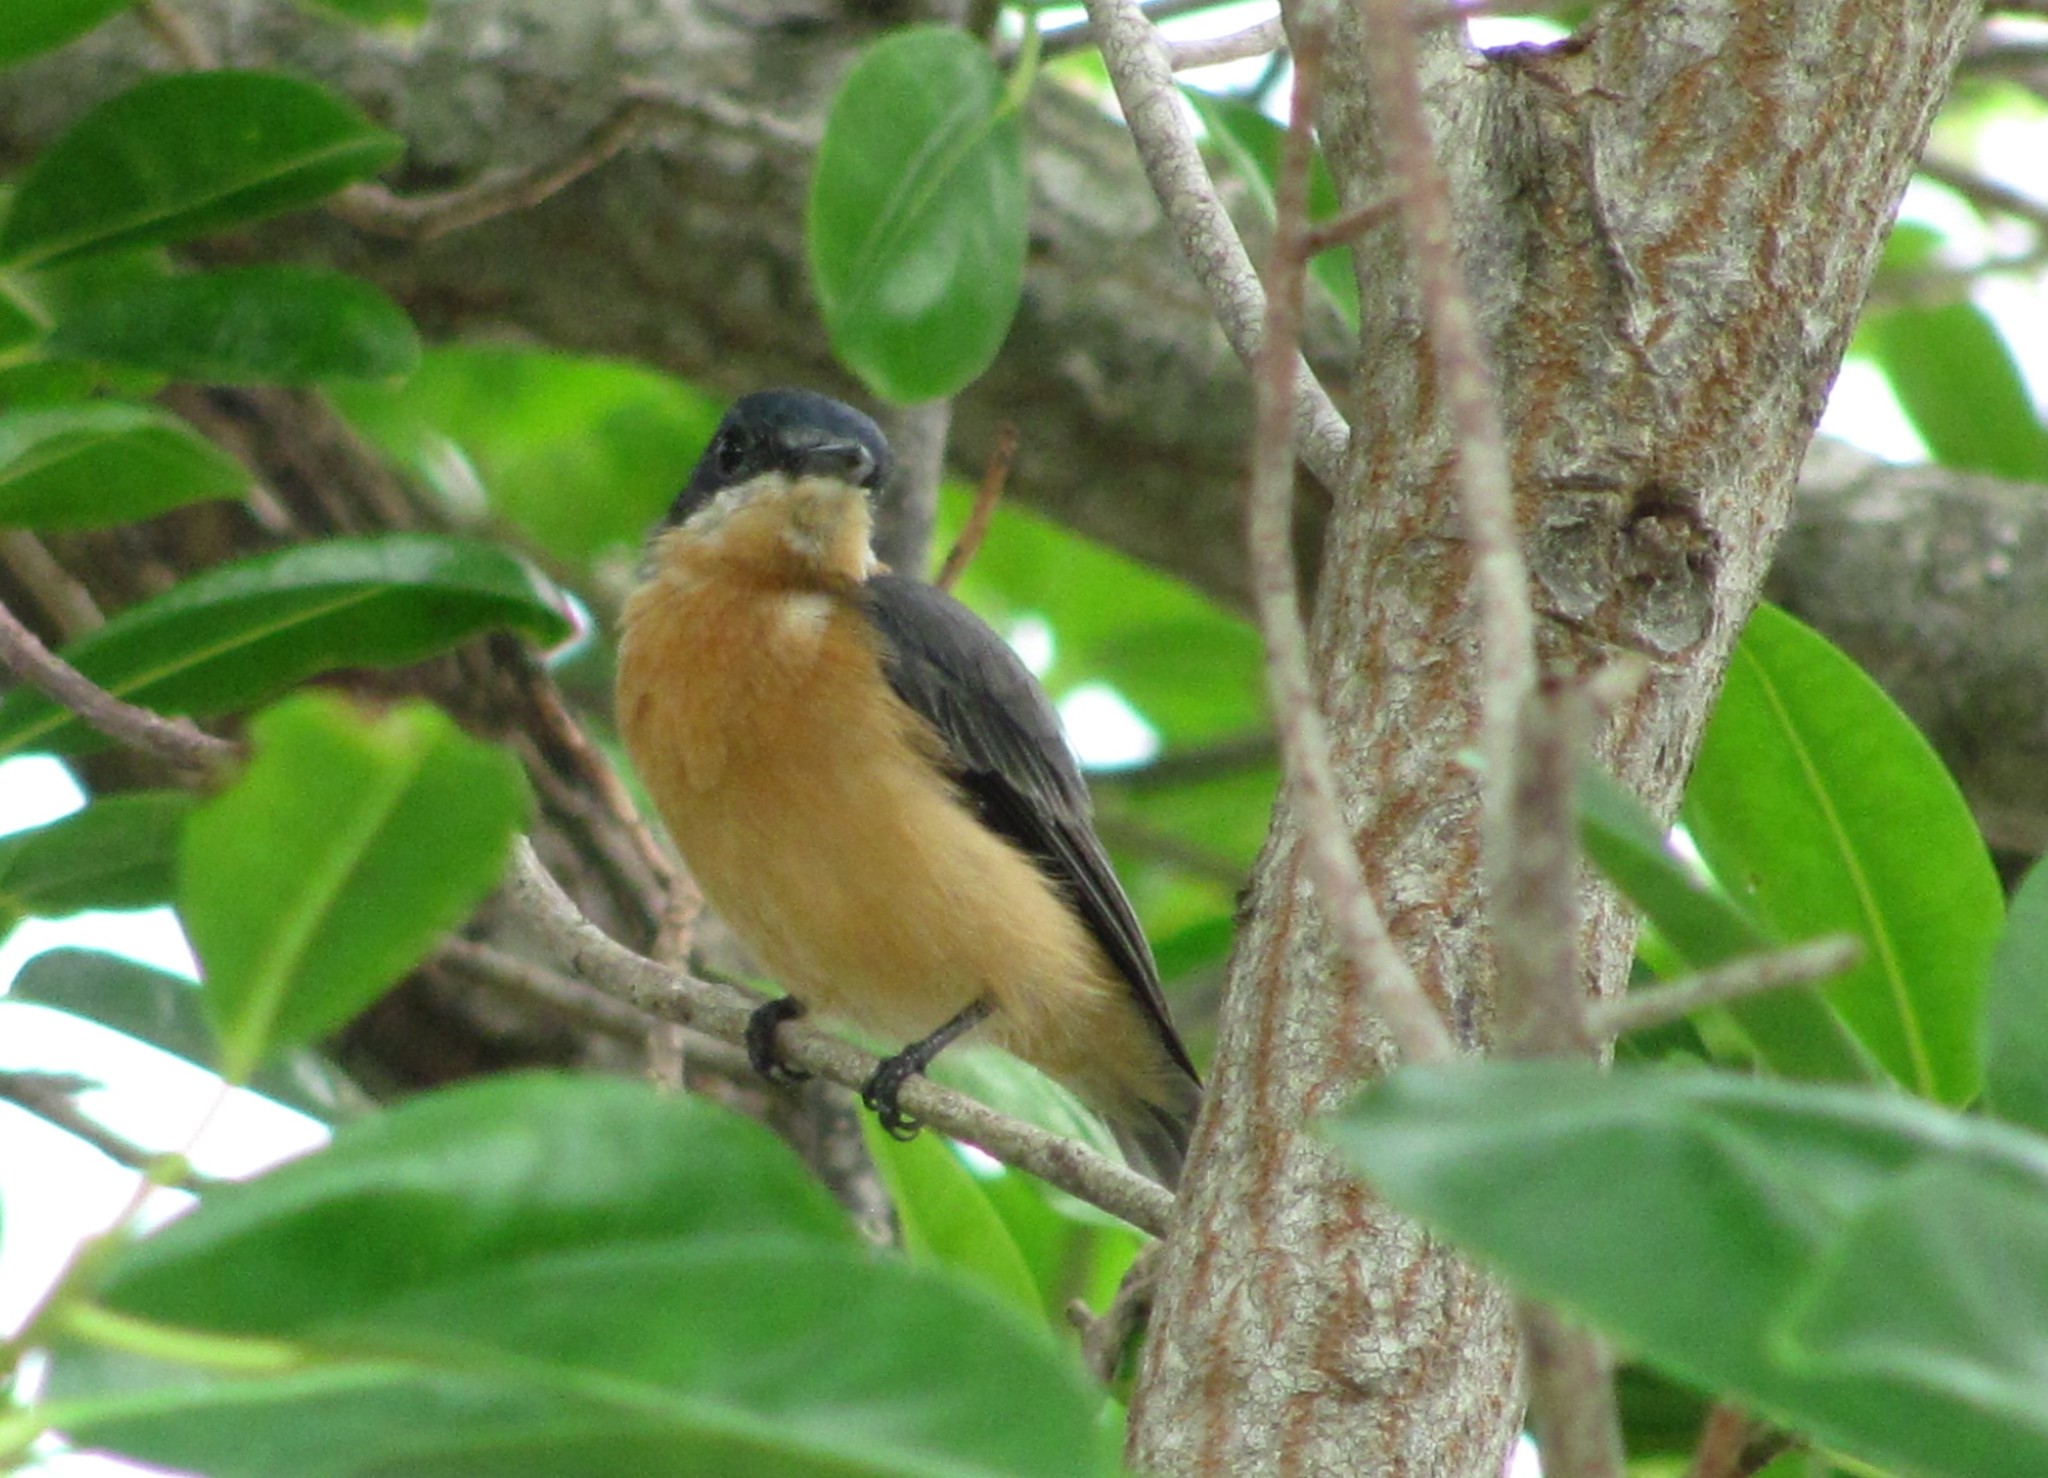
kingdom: Animalia
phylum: Chordata
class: Aves
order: Passeriformes
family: Monarchidae
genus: Myiagra
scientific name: Myiagra vanikorensis
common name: Vanikoro flycatcher
